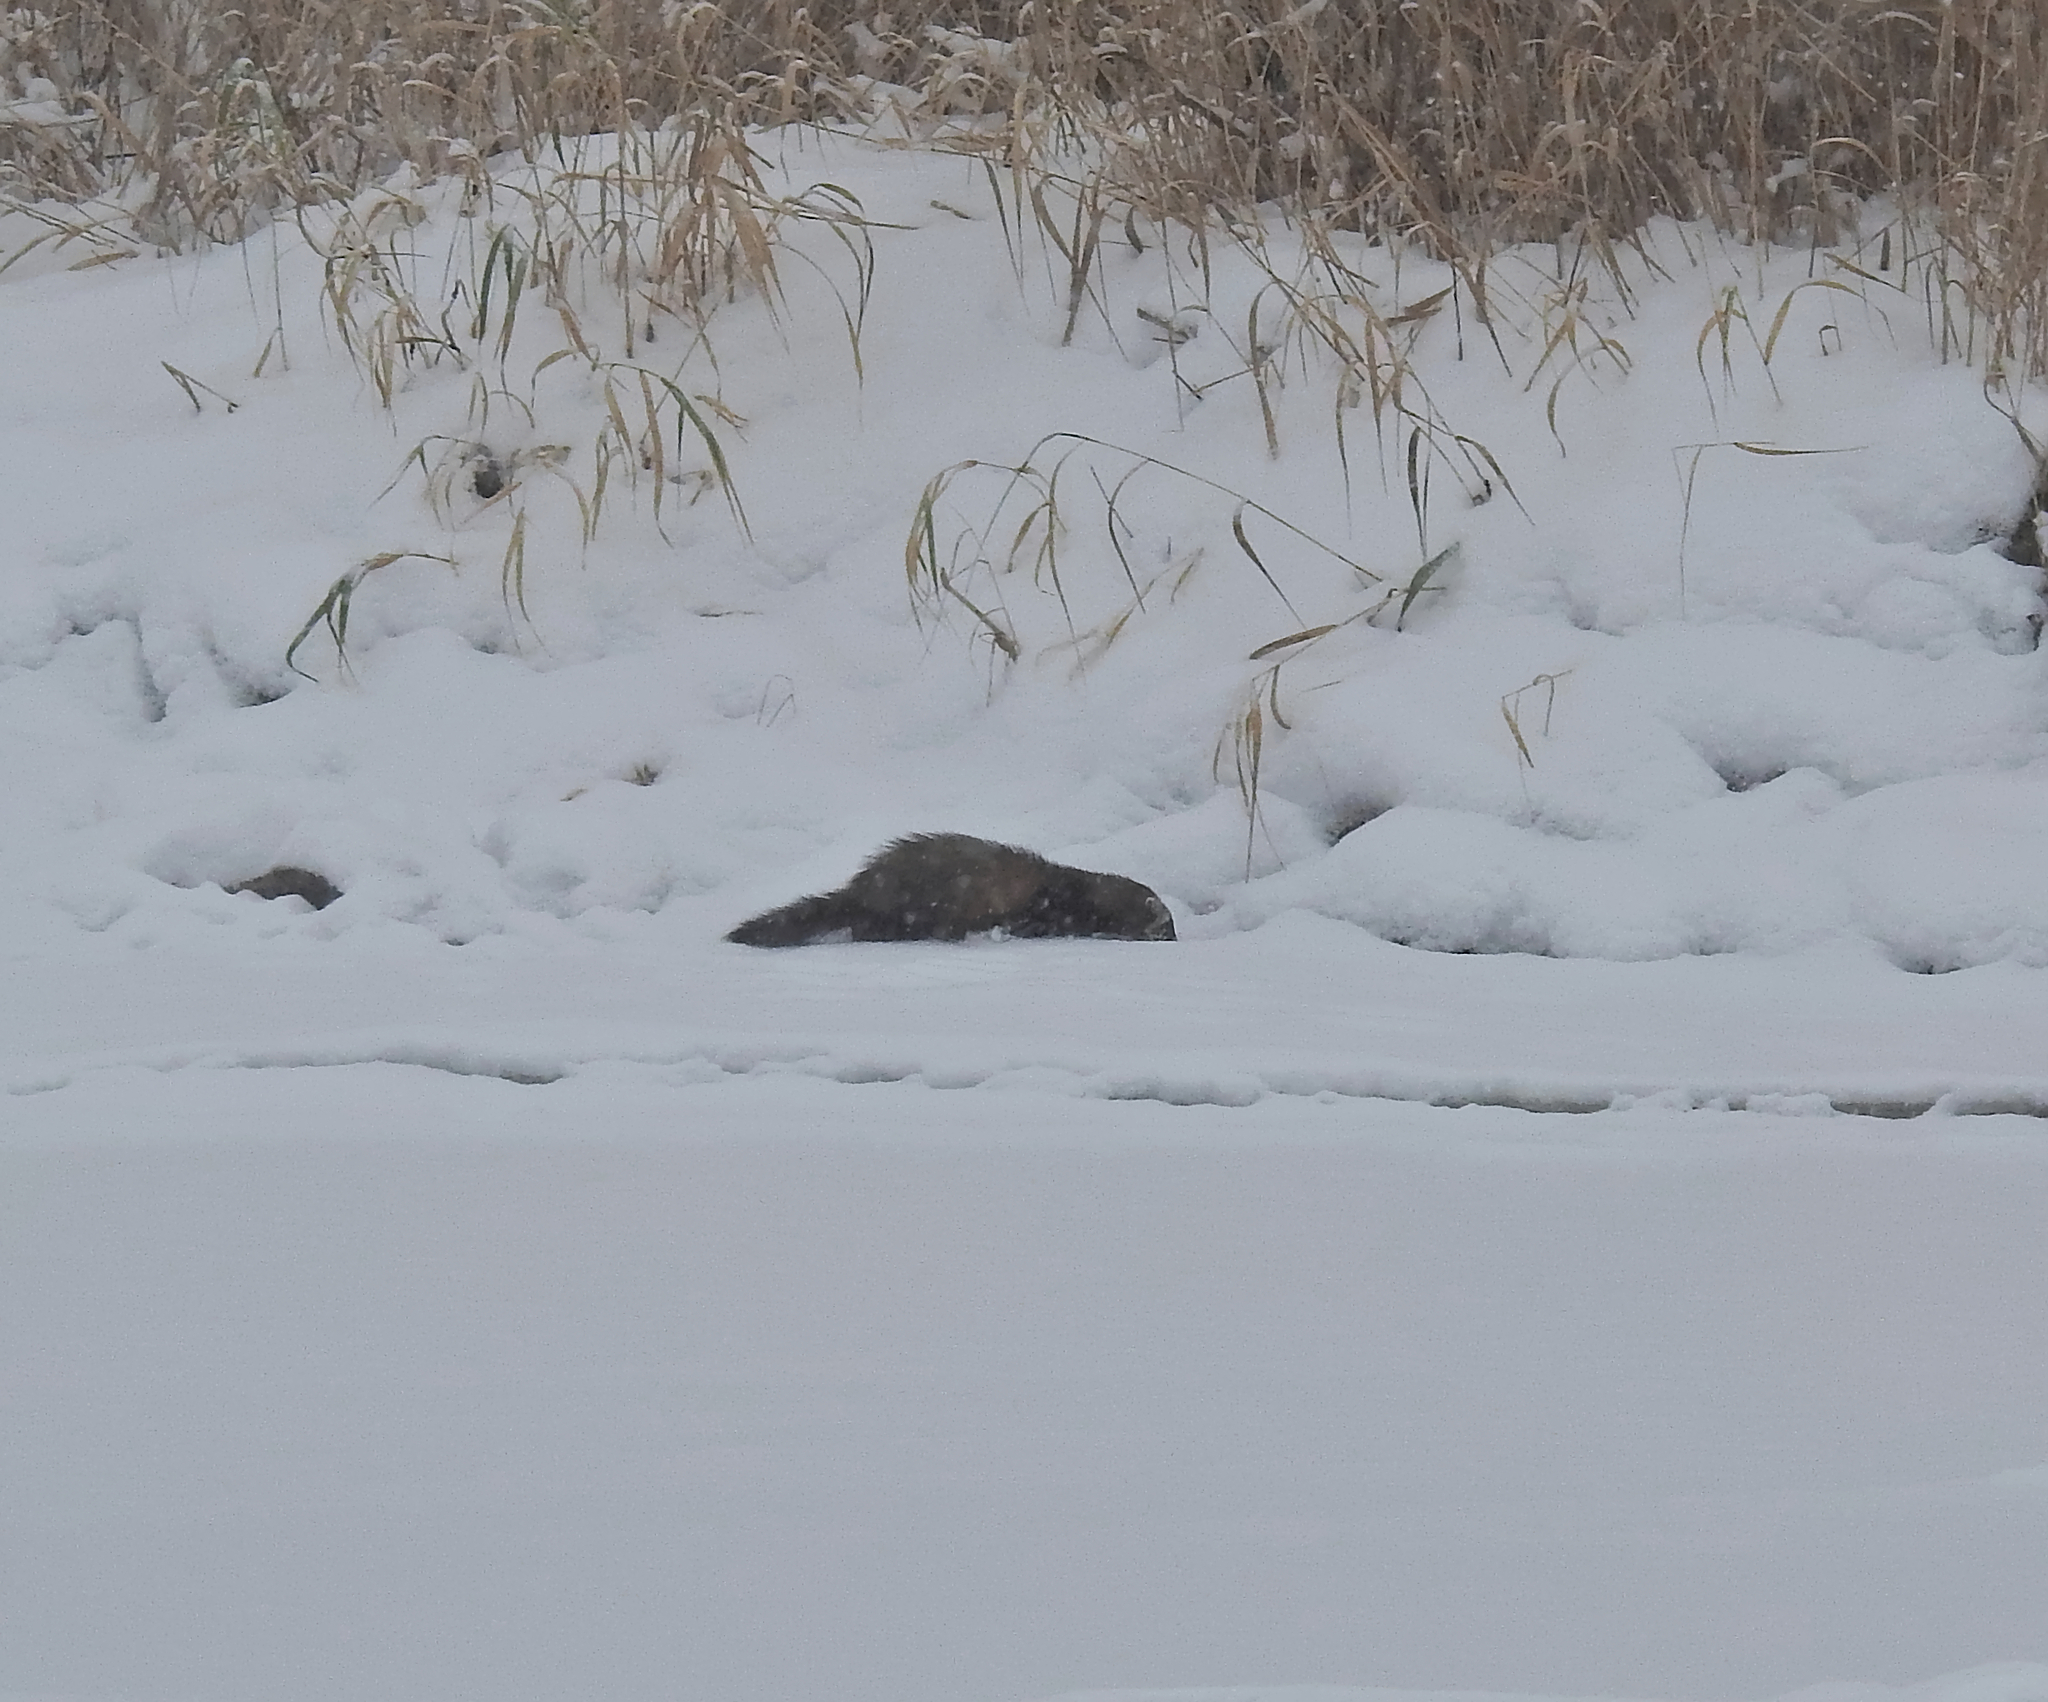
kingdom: Animalia
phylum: Chordata
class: Mammalia
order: Carnivora
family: Mustelidae
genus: Mustela
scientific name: Mustela putorius
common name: European polecat
